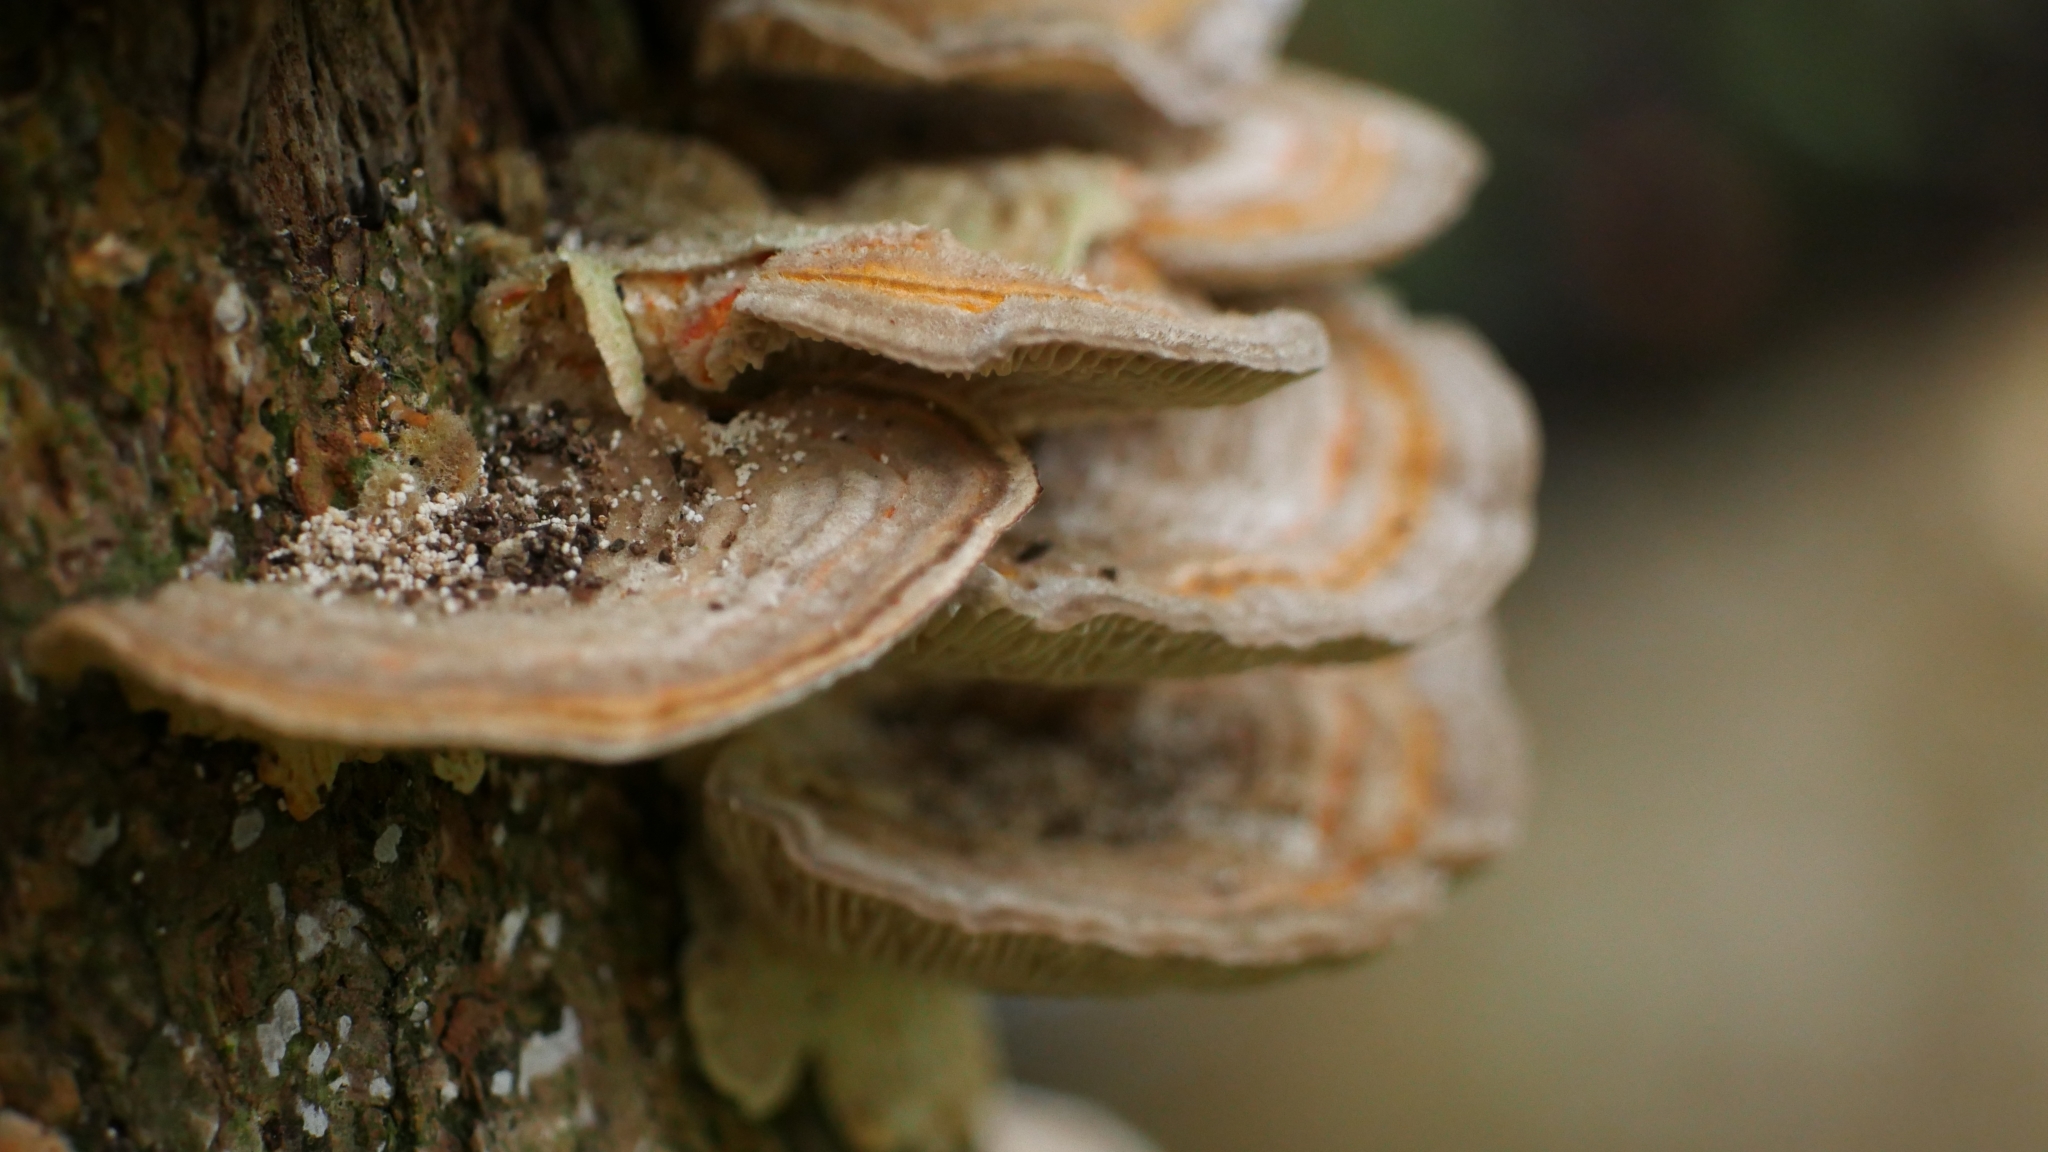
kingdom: Fungi
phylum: Basidiomycota
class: Agaricomycetes
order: Polyporales
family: Polyporaceae
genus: Lenzites
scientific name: Lenzites betulinus
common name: Birch mazegill
